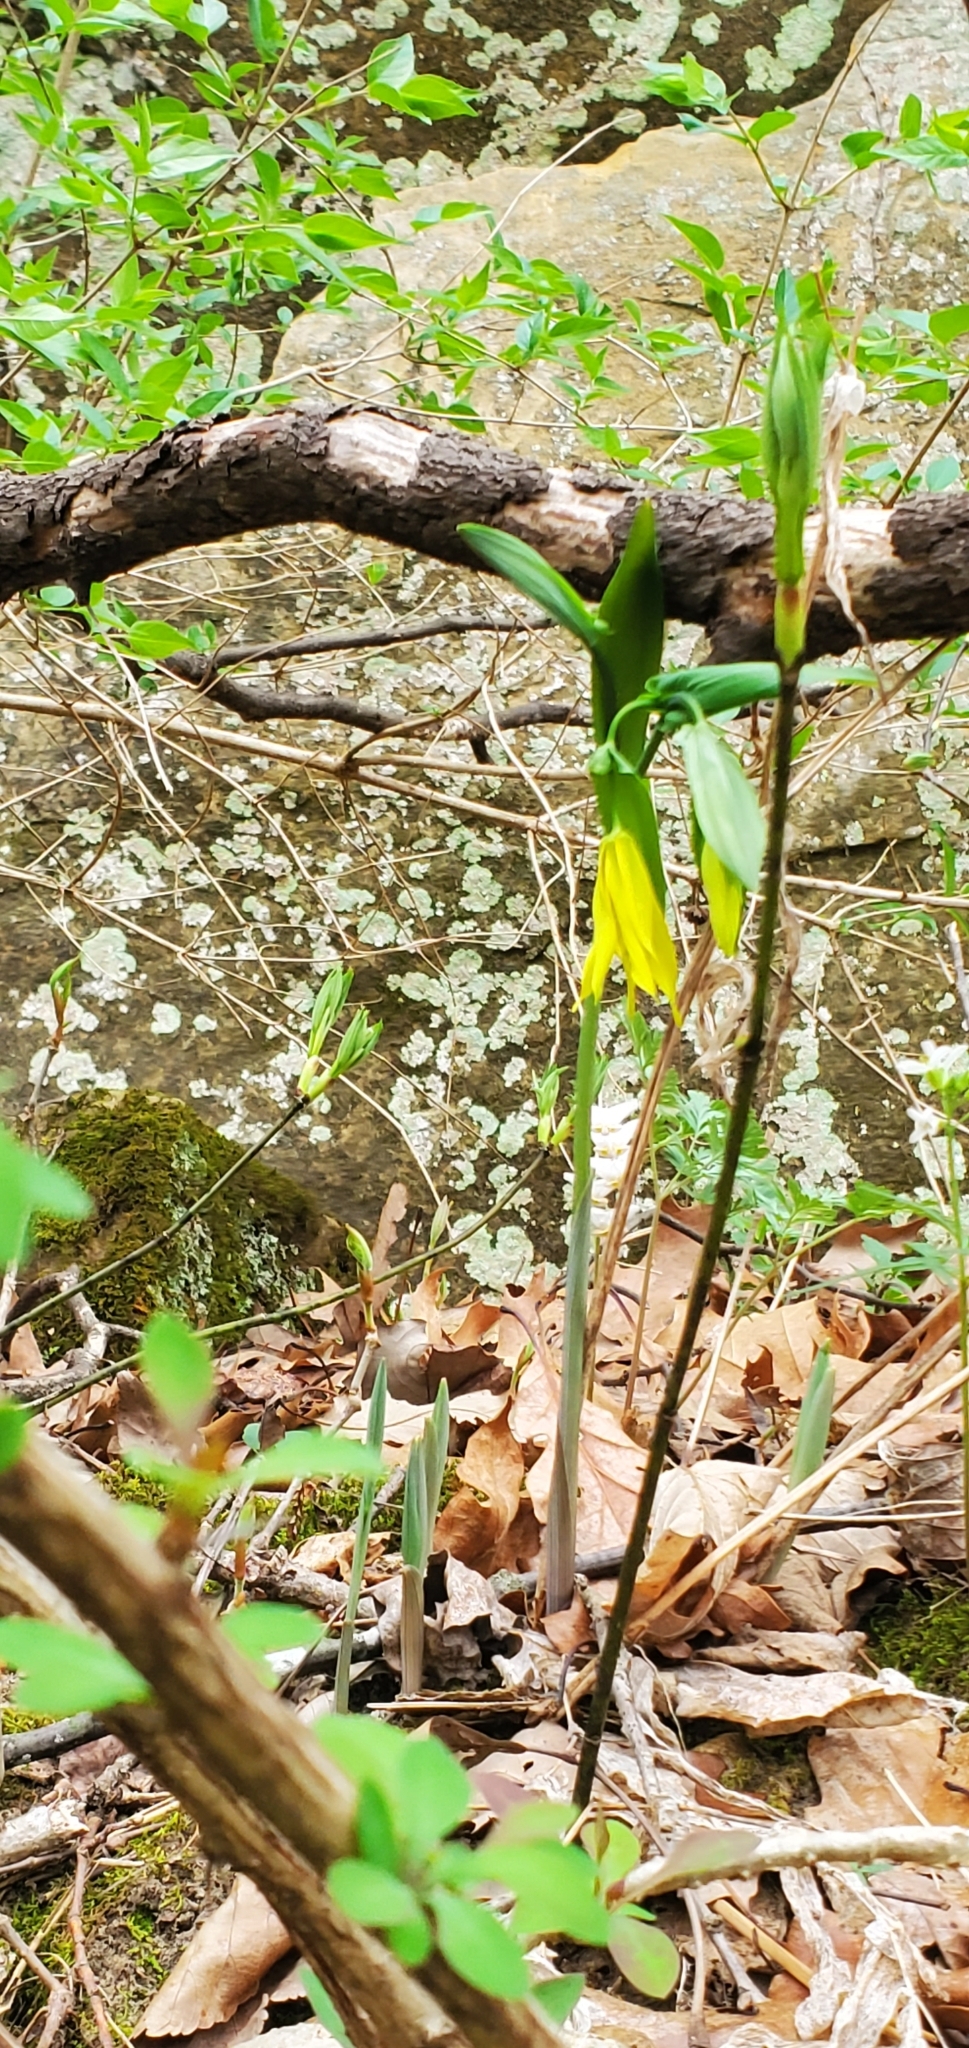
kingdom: Plantae
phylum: Tracheophyta
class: Liliopsida
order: Liliales
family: Colchicaceae
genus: Uvularia
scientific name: Uvularia grandiflora
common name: Bellwort
